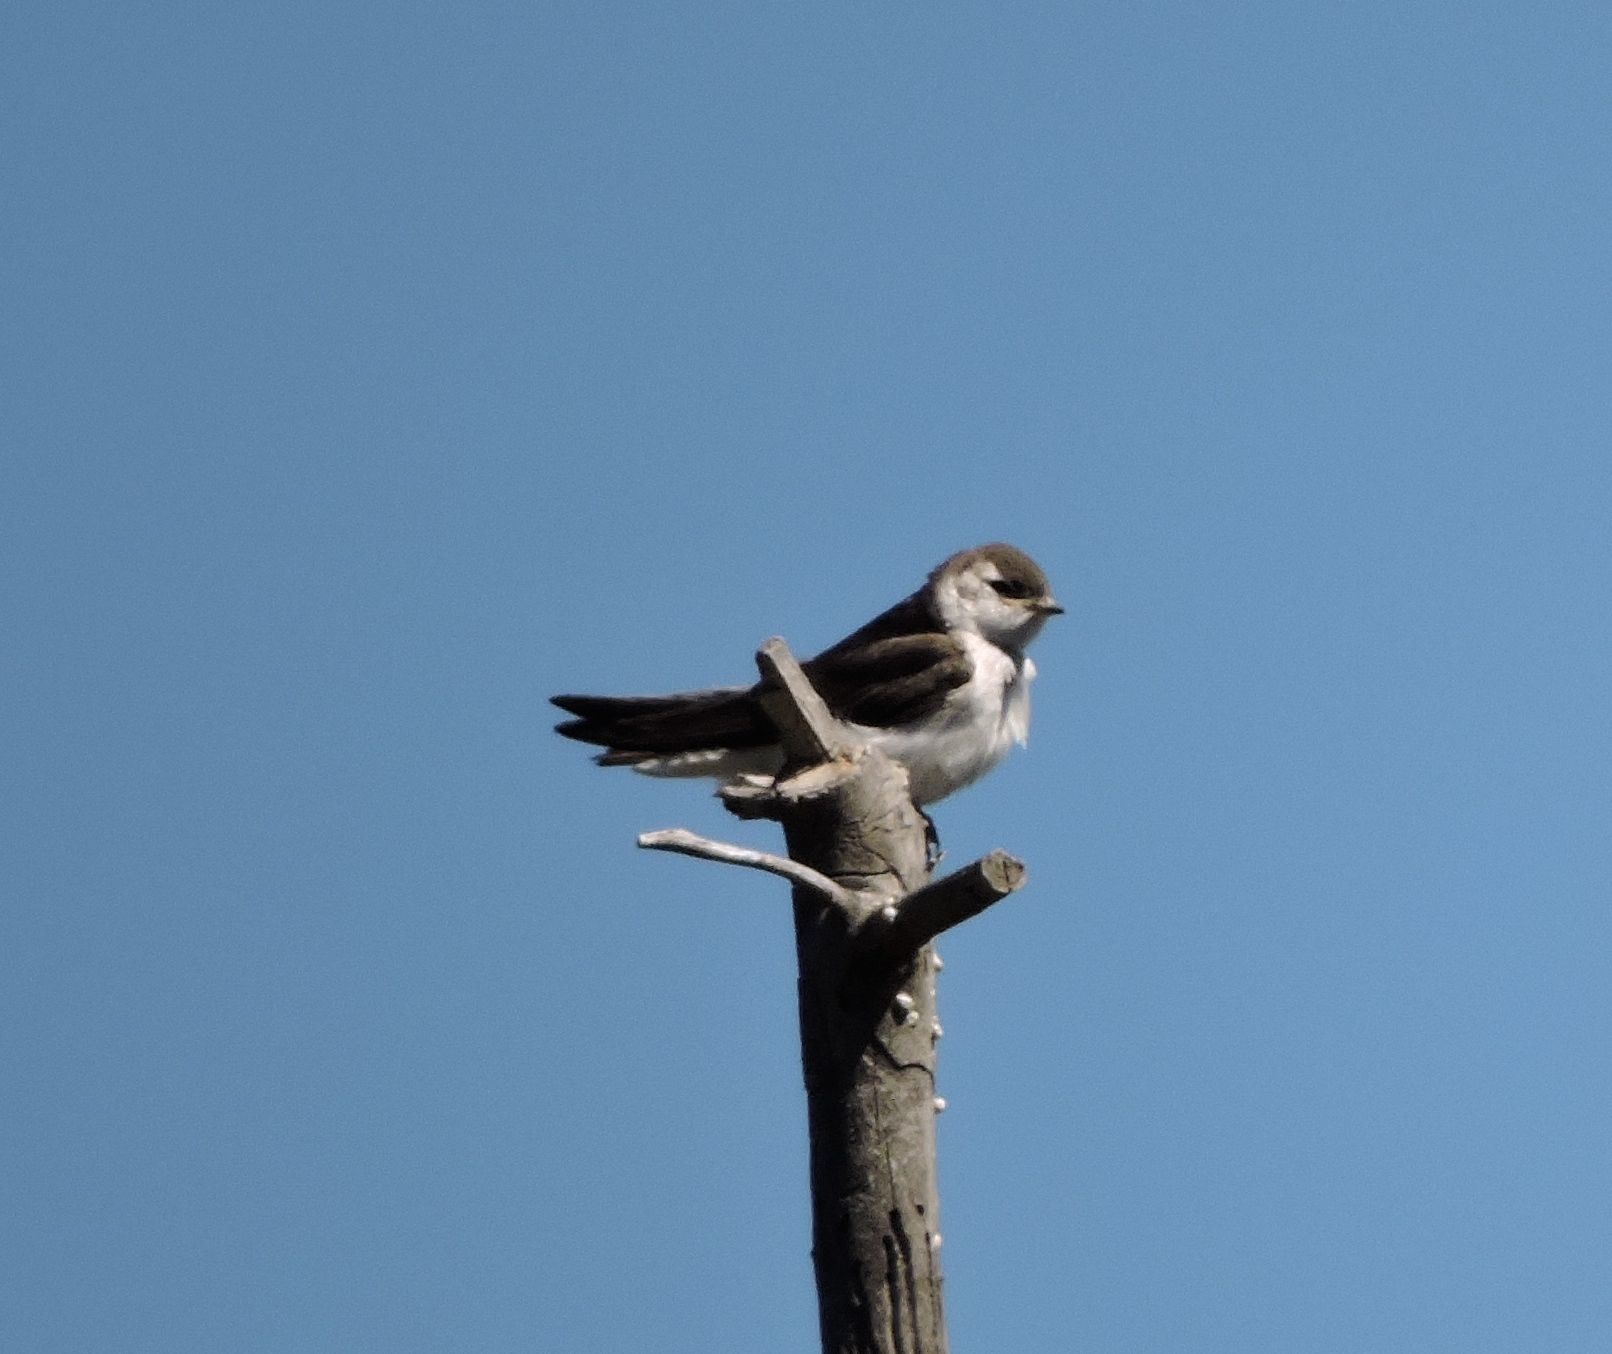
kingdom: Animalia
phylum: Chordata
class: Aves
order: Passeriformes
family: Hirundinidae
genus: Tachycineta
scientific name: Tachycineta thalassina
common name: Violet-green swallow
